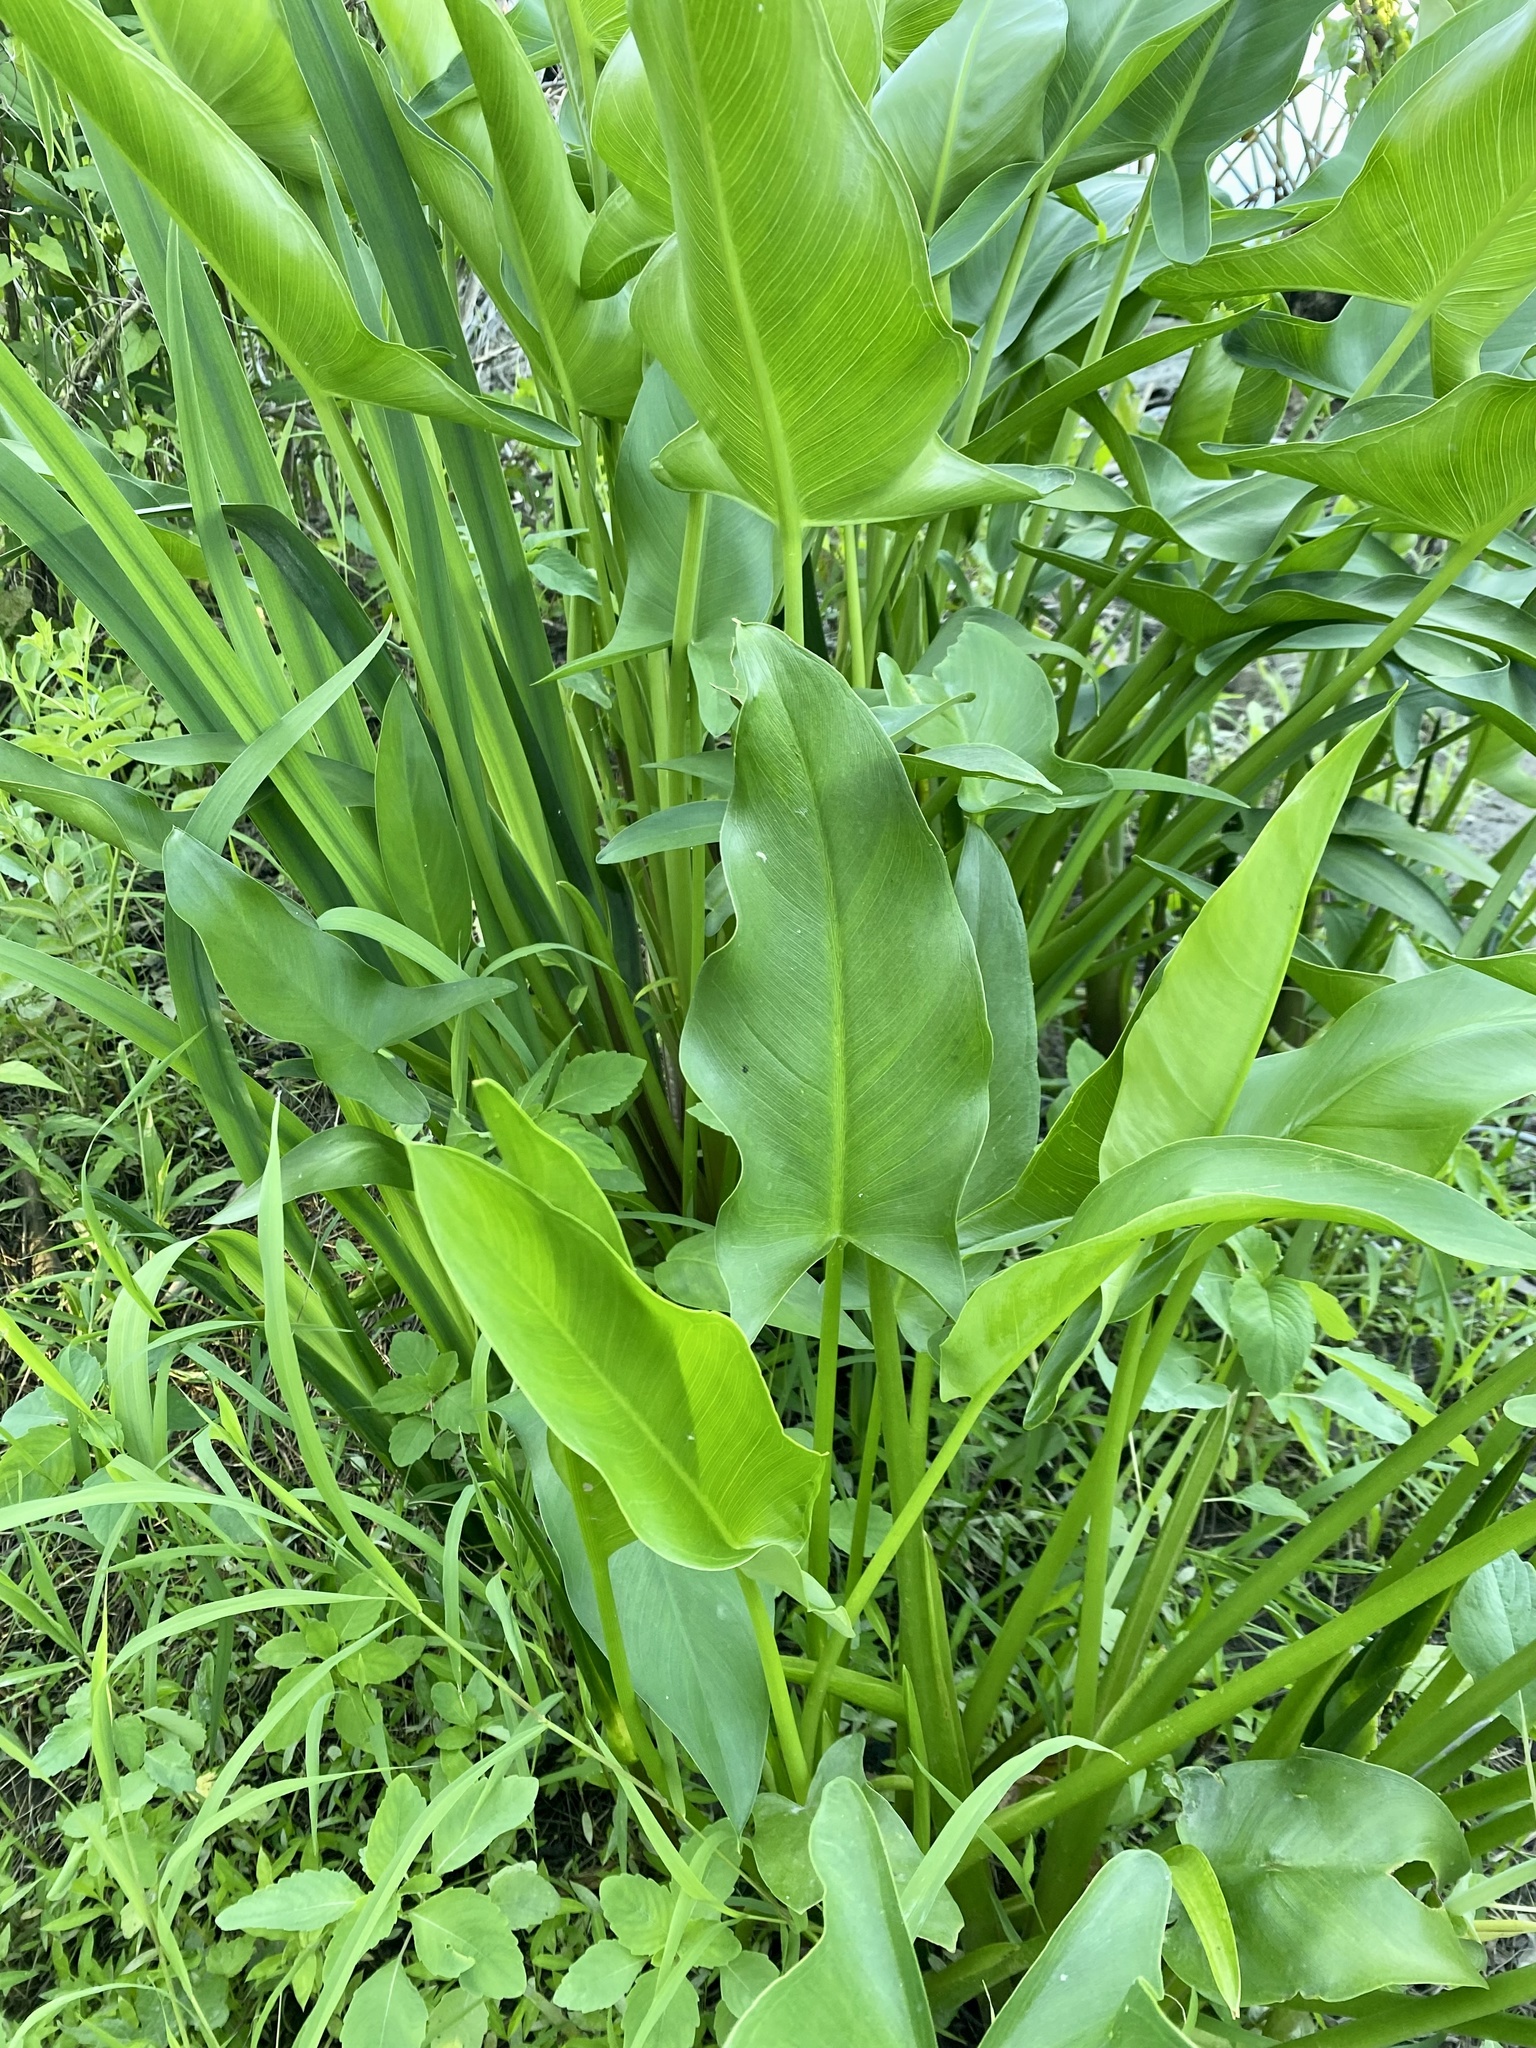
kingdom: Plantae
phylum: Tracheophyta
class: Liliopsida
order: Alismatales
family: Araceae
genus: Peltandra
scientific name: Peltandra virginica
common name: Arrow arum
